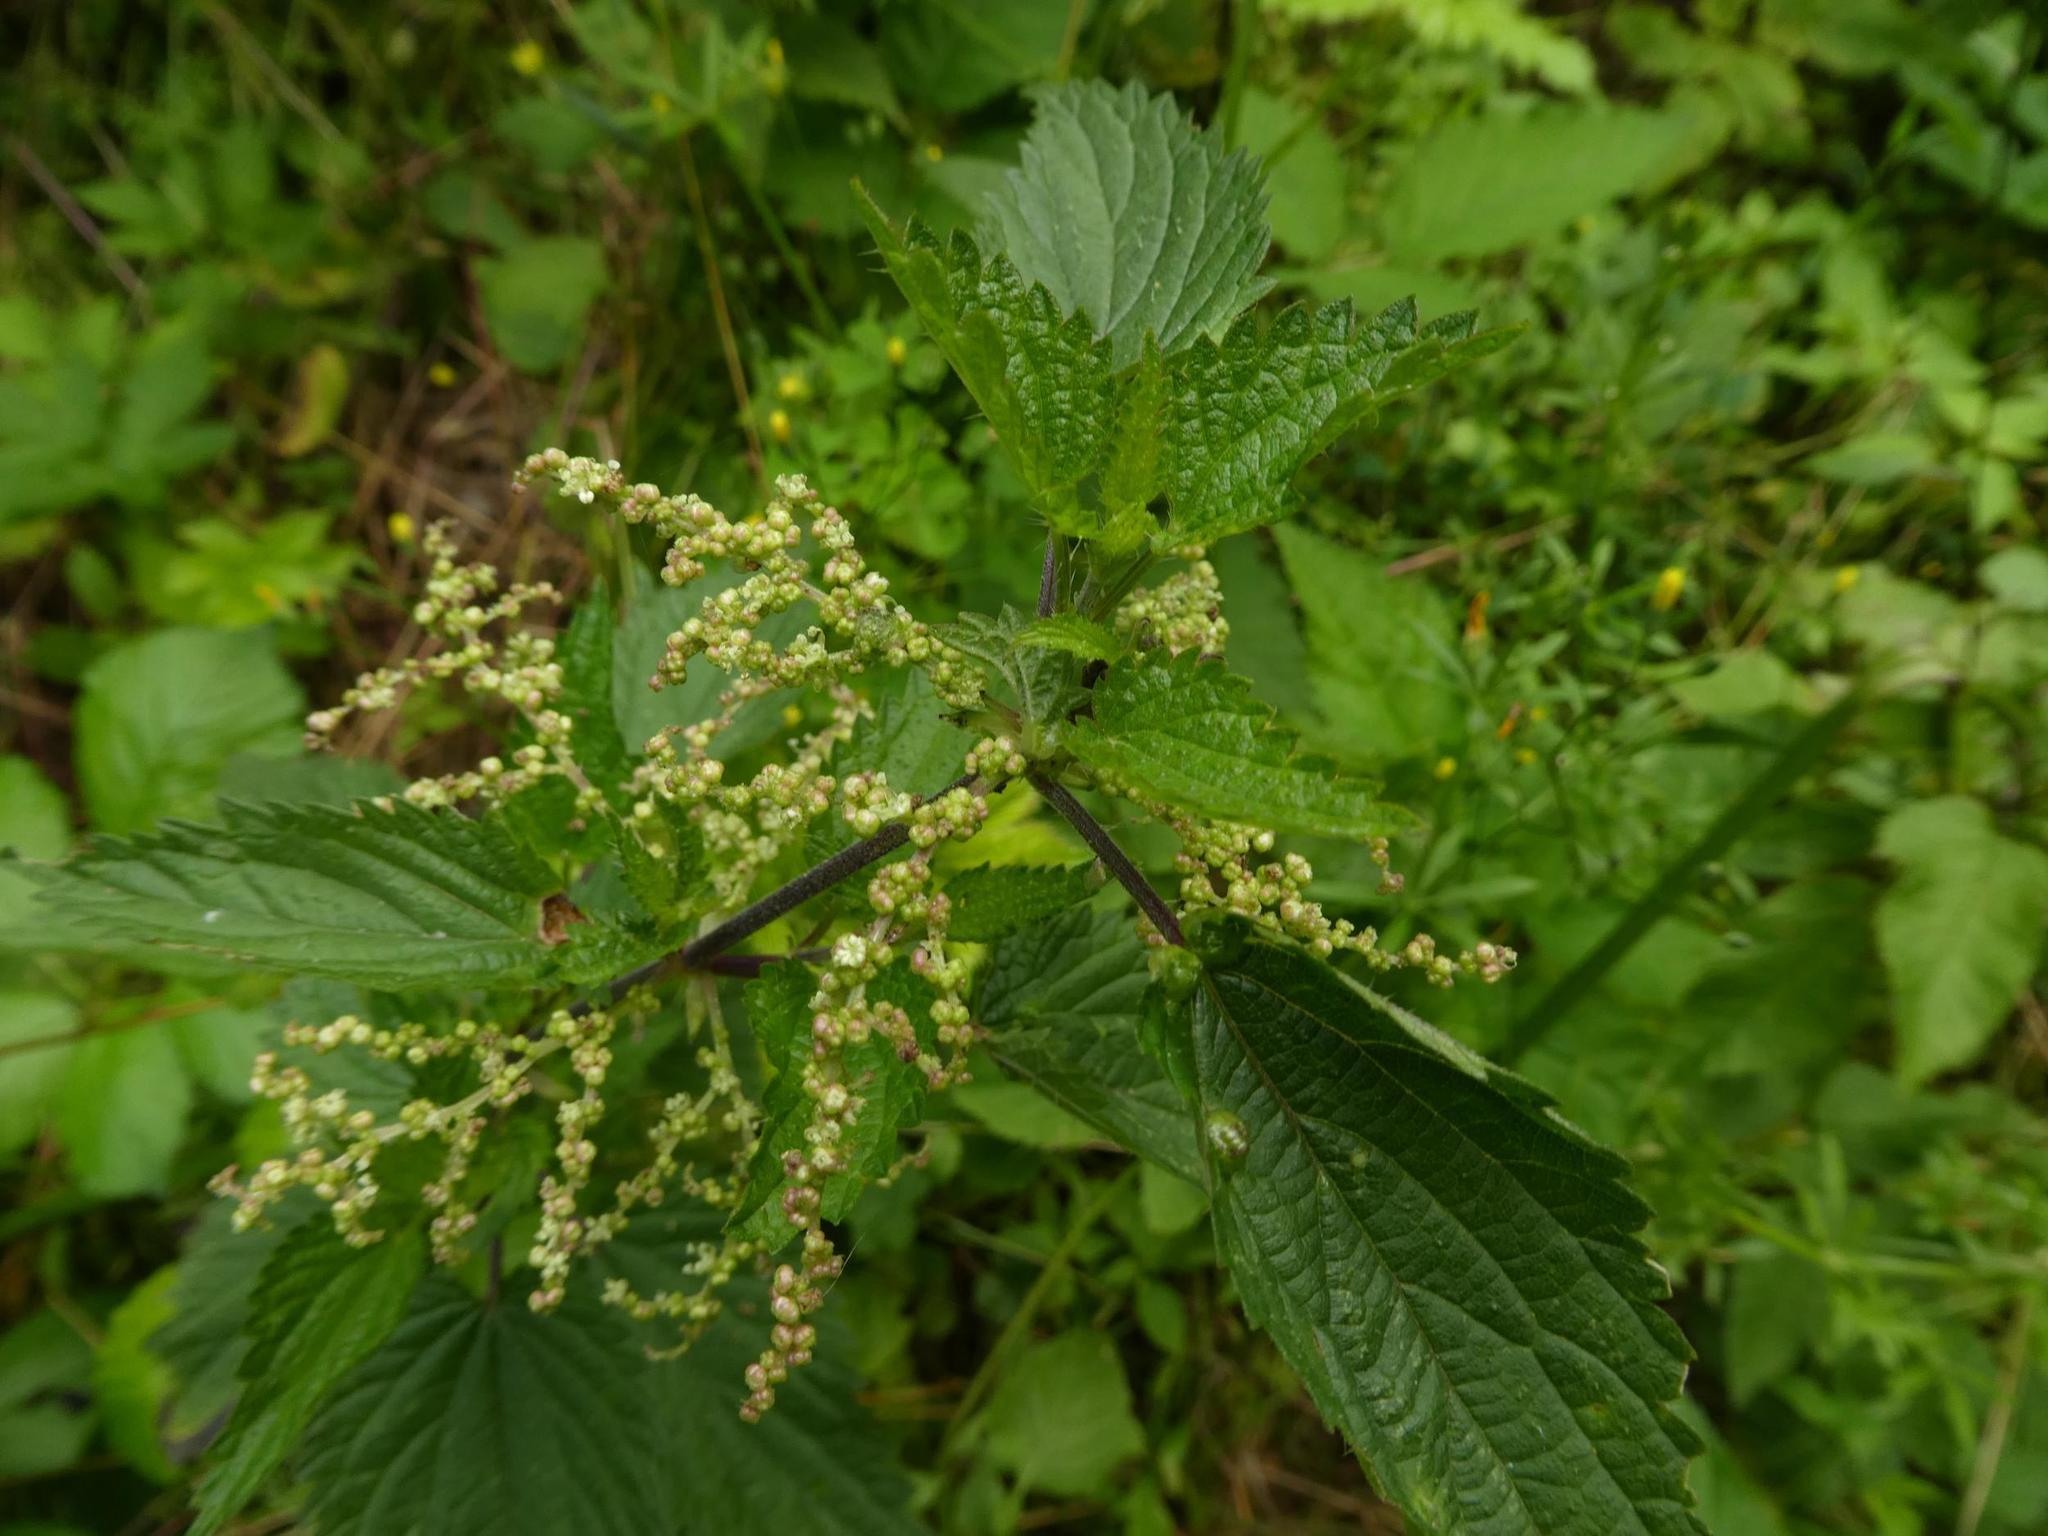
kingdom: Plantae
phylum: Tracheophyta
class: Magnoliopsida
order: Rosales
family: Urticaceae
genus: Urtica
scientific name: Urtica dioica
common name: Common nettle
